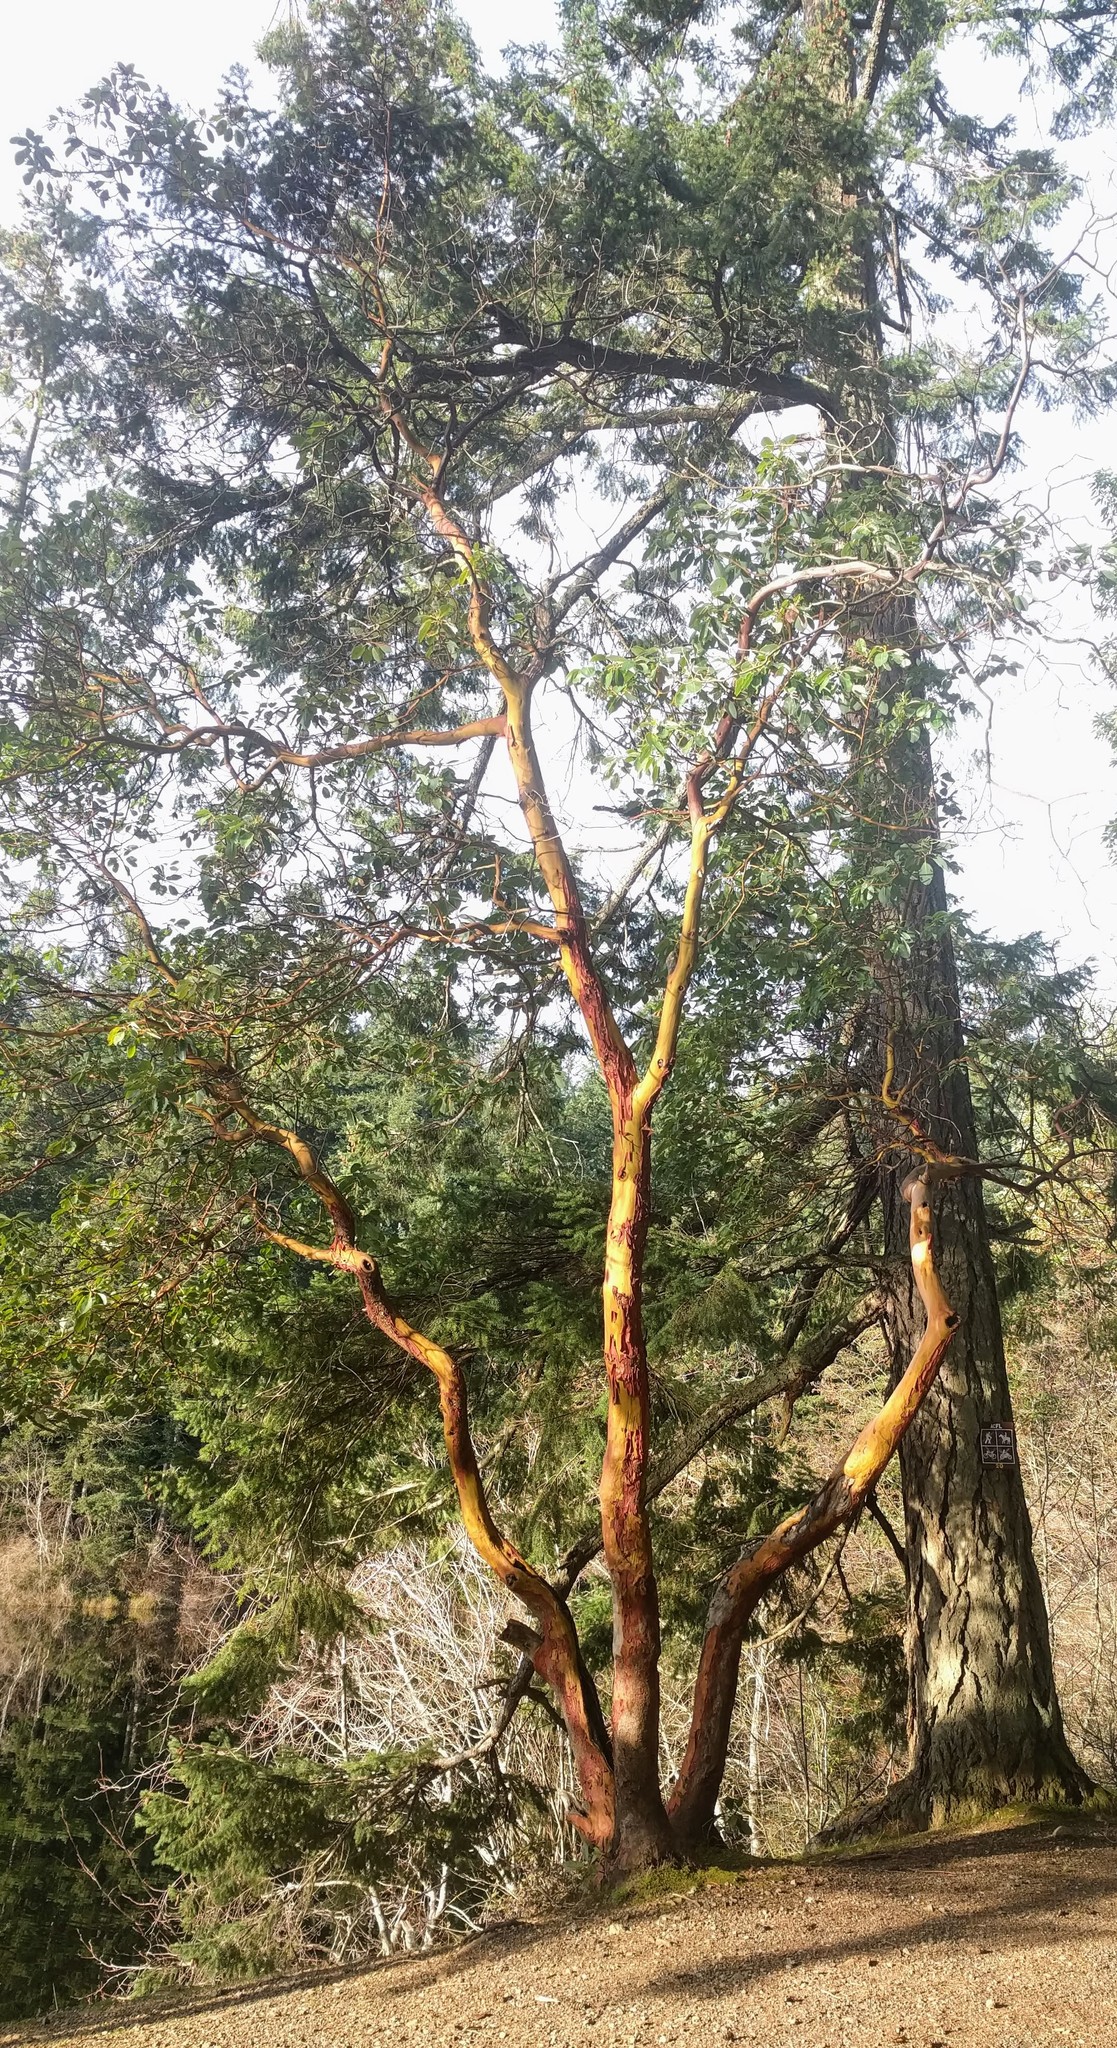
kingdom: Plantae
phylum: Tracheophyta
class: Magnoliopsida
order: Ericales
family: Ericaceae
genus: Arbutus
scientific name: Arbutus menziesii
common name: Pacific madrone
